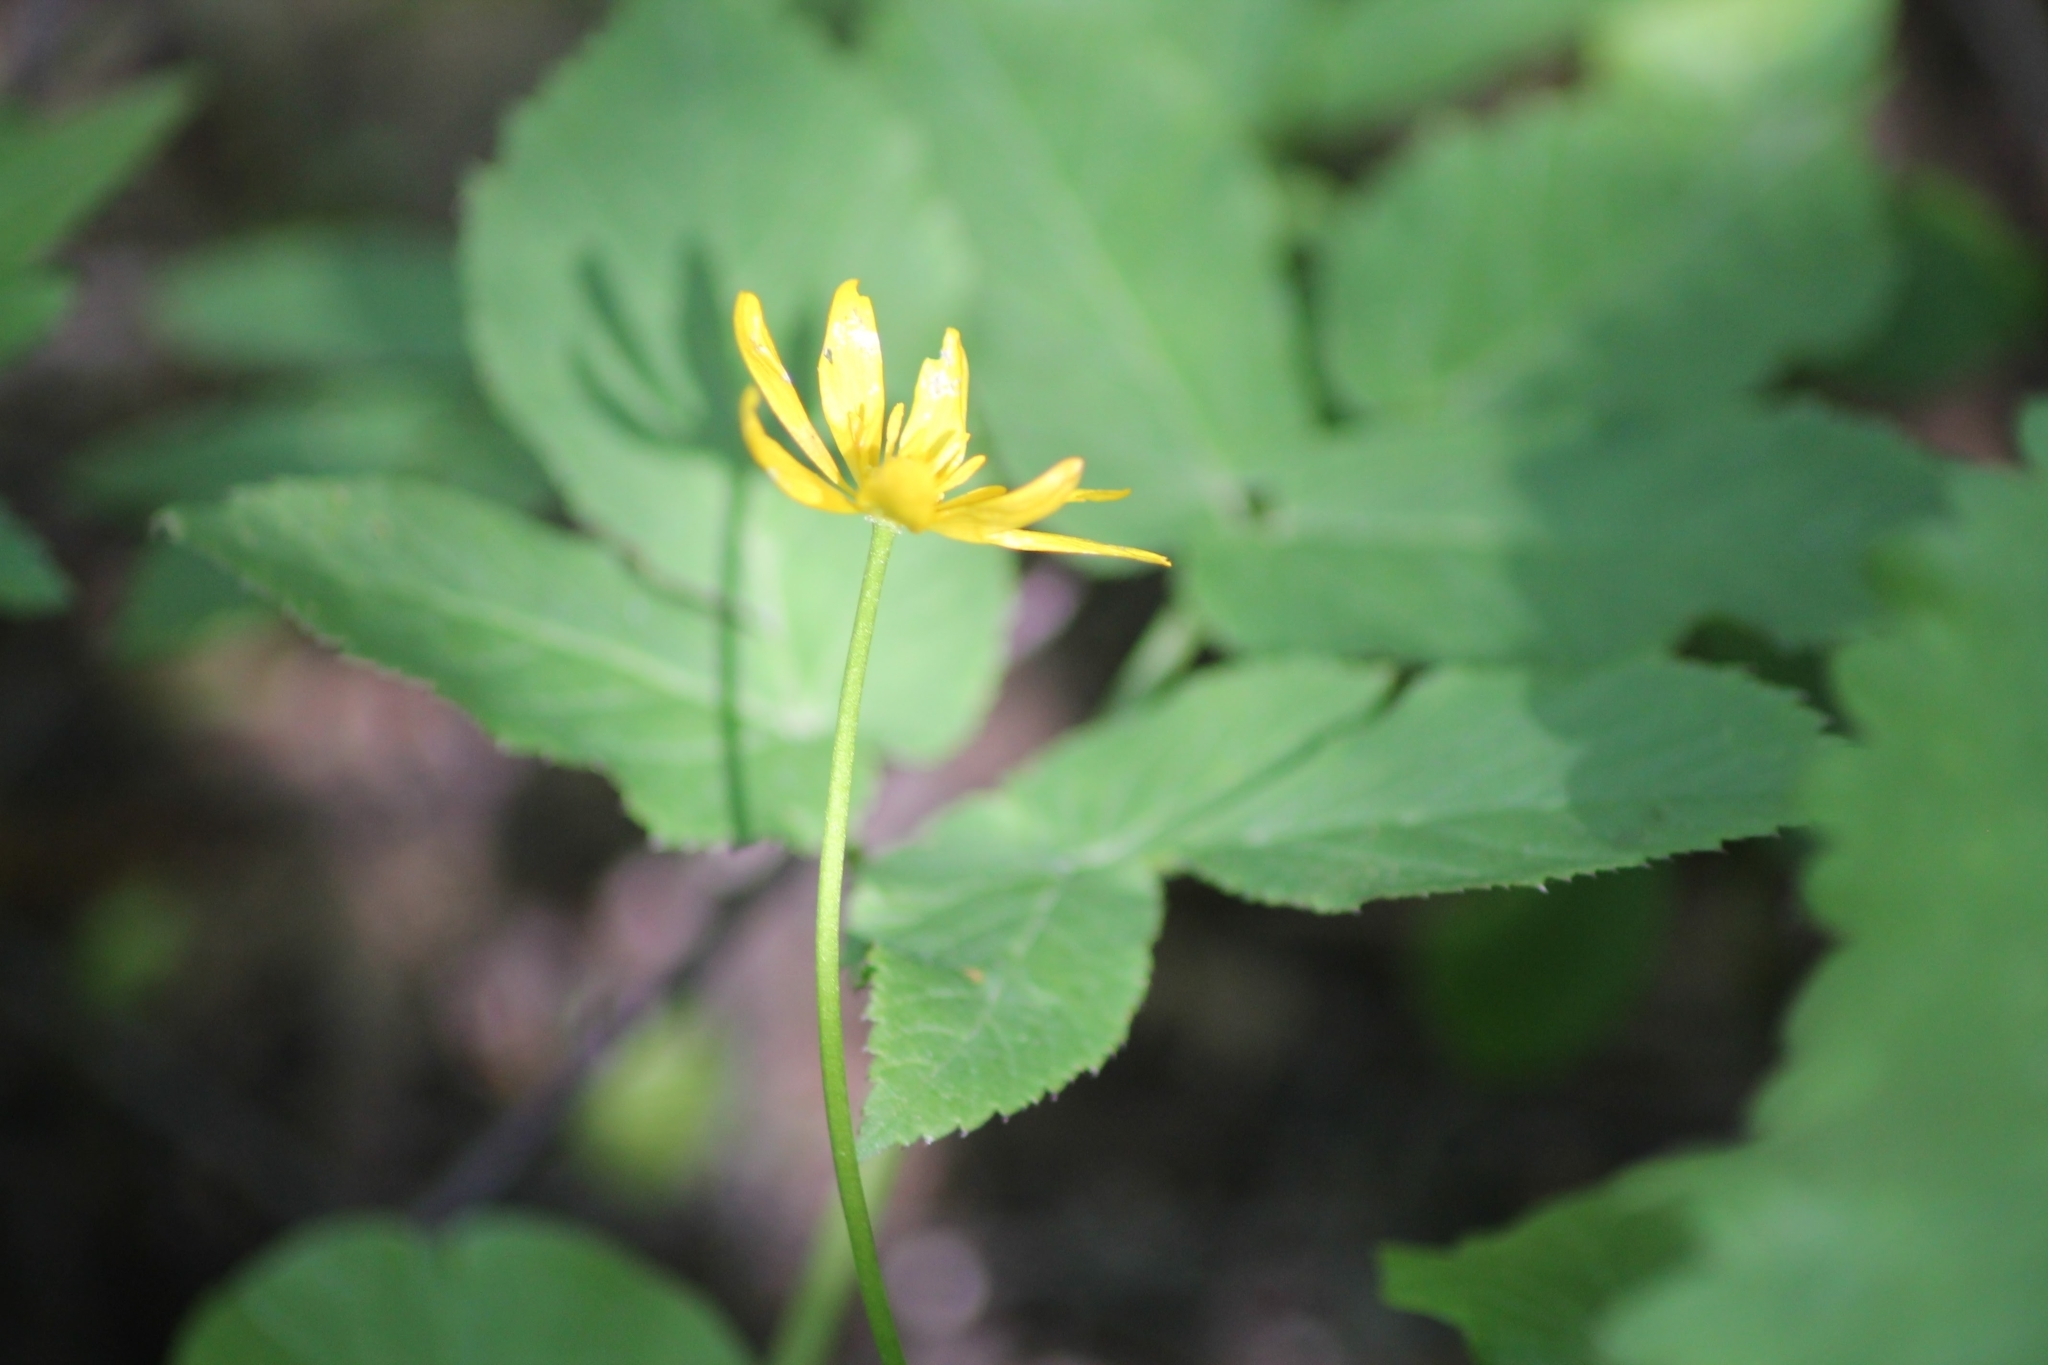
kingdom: Plantae
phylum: Tracheophyta
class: Magnoliopsida
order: Ranunculales
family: Ranunculaceae
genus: Ficaria
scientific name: Ficaria verna
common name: Lesser celandine
